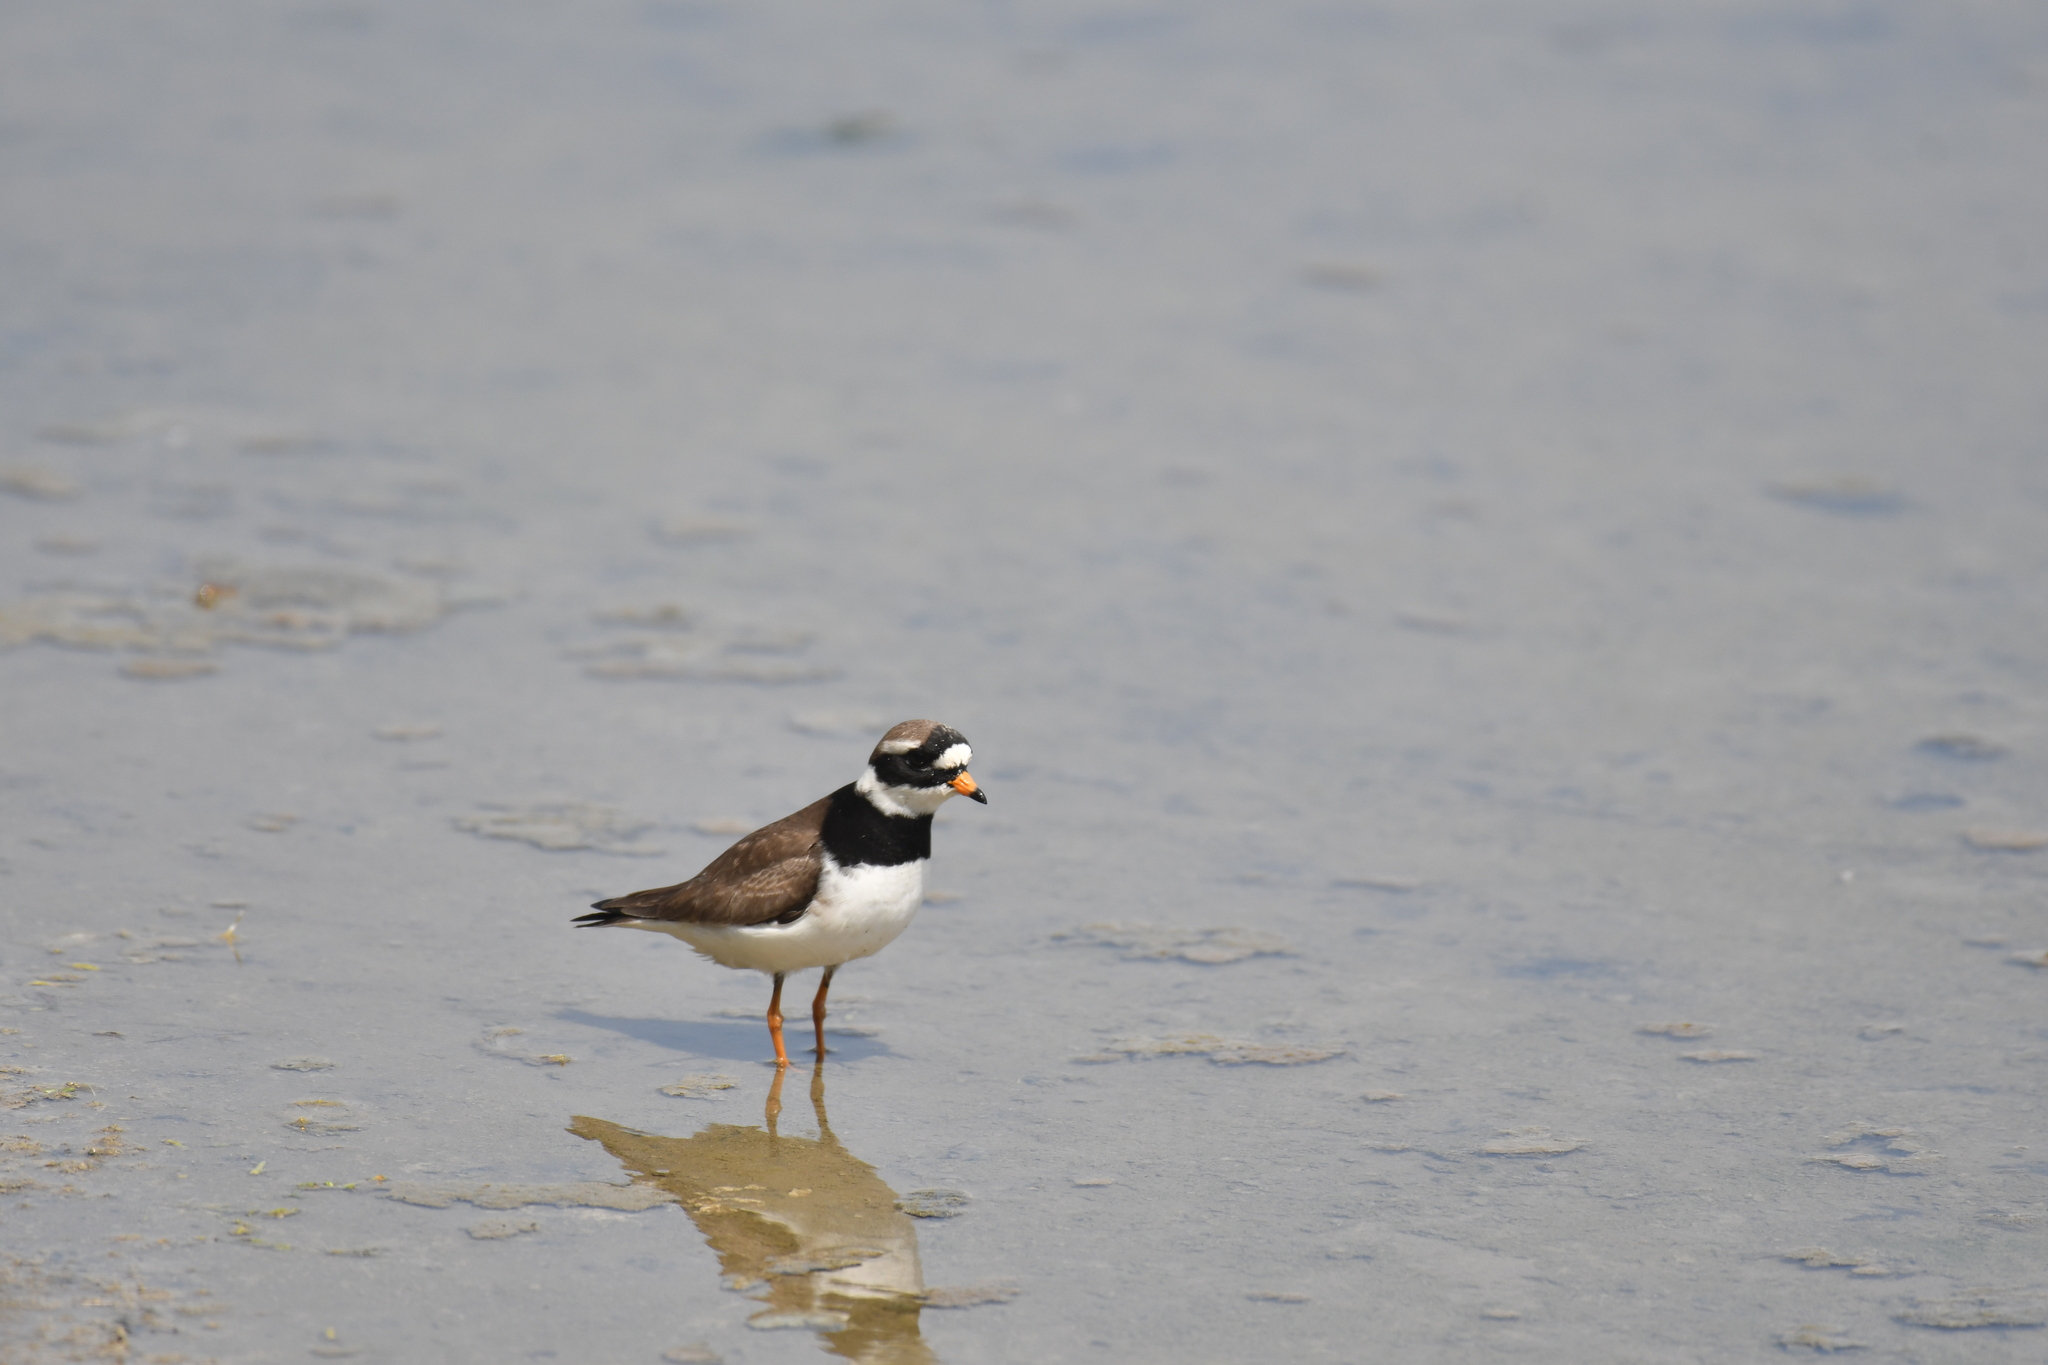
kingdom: Animalia
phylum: Chordata
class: Aves
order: Charadriiformes
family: Charadriidae
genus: Charadrius
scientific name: Charadrius hiaticula
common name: Common ringed plover
